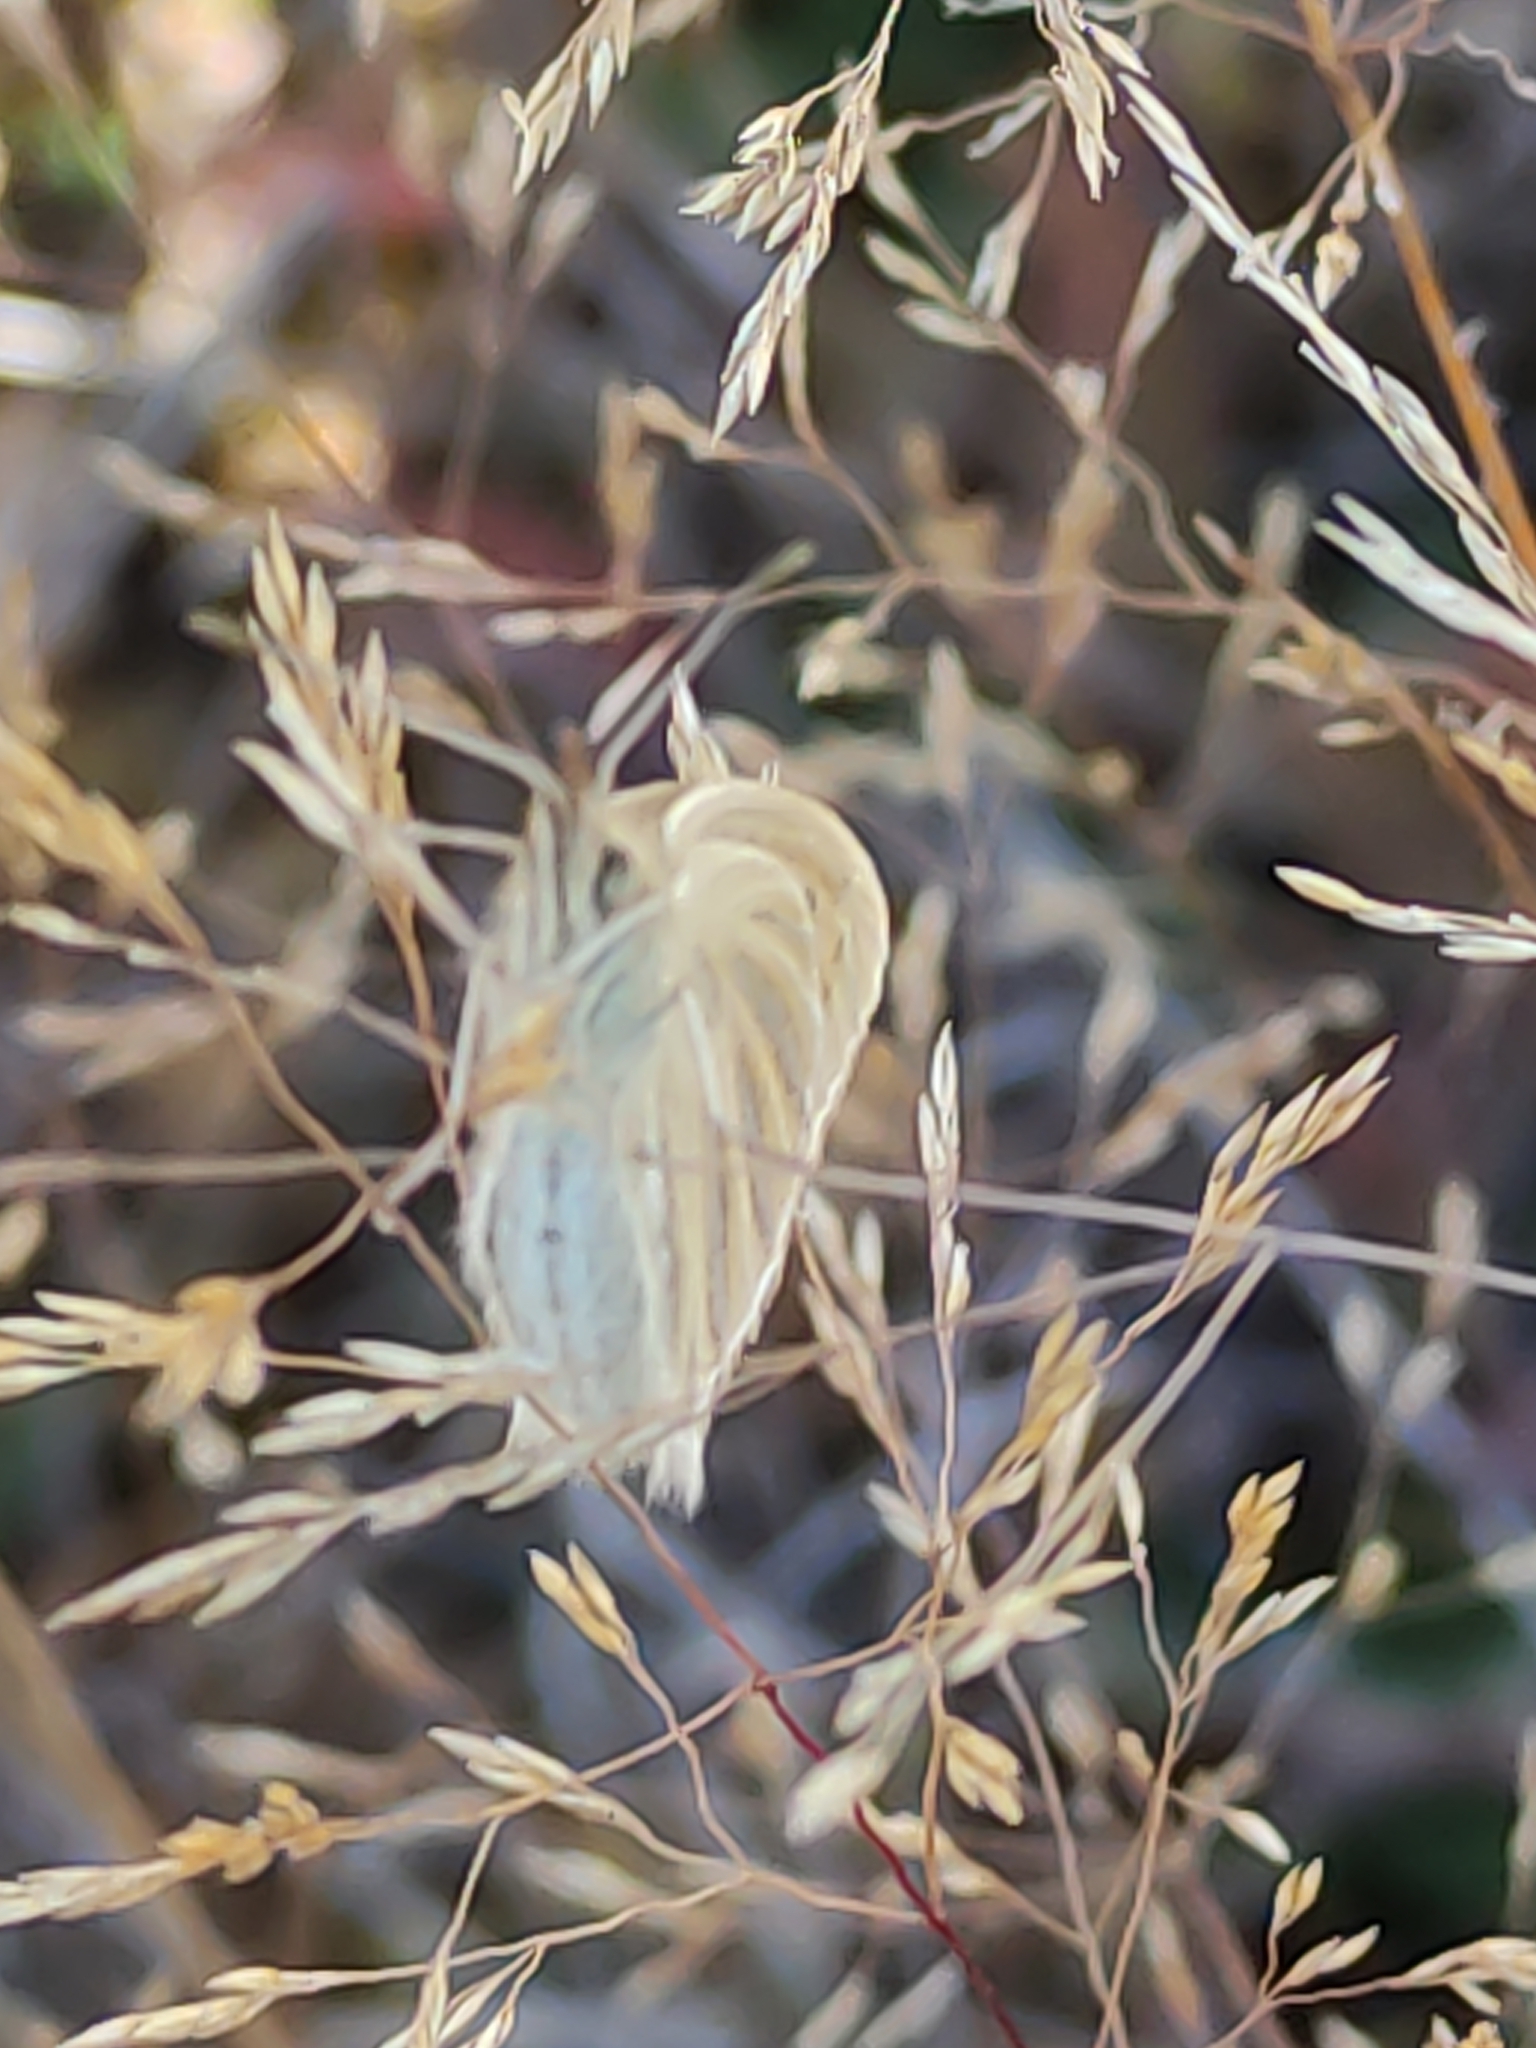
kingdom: Animalia
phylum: Arthropoda
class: Insecta
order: Lepidoptera
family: Nymphalidae
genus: Argyrophenga
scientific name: Argyrophenga antipodum
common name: Common tussock butterfly
